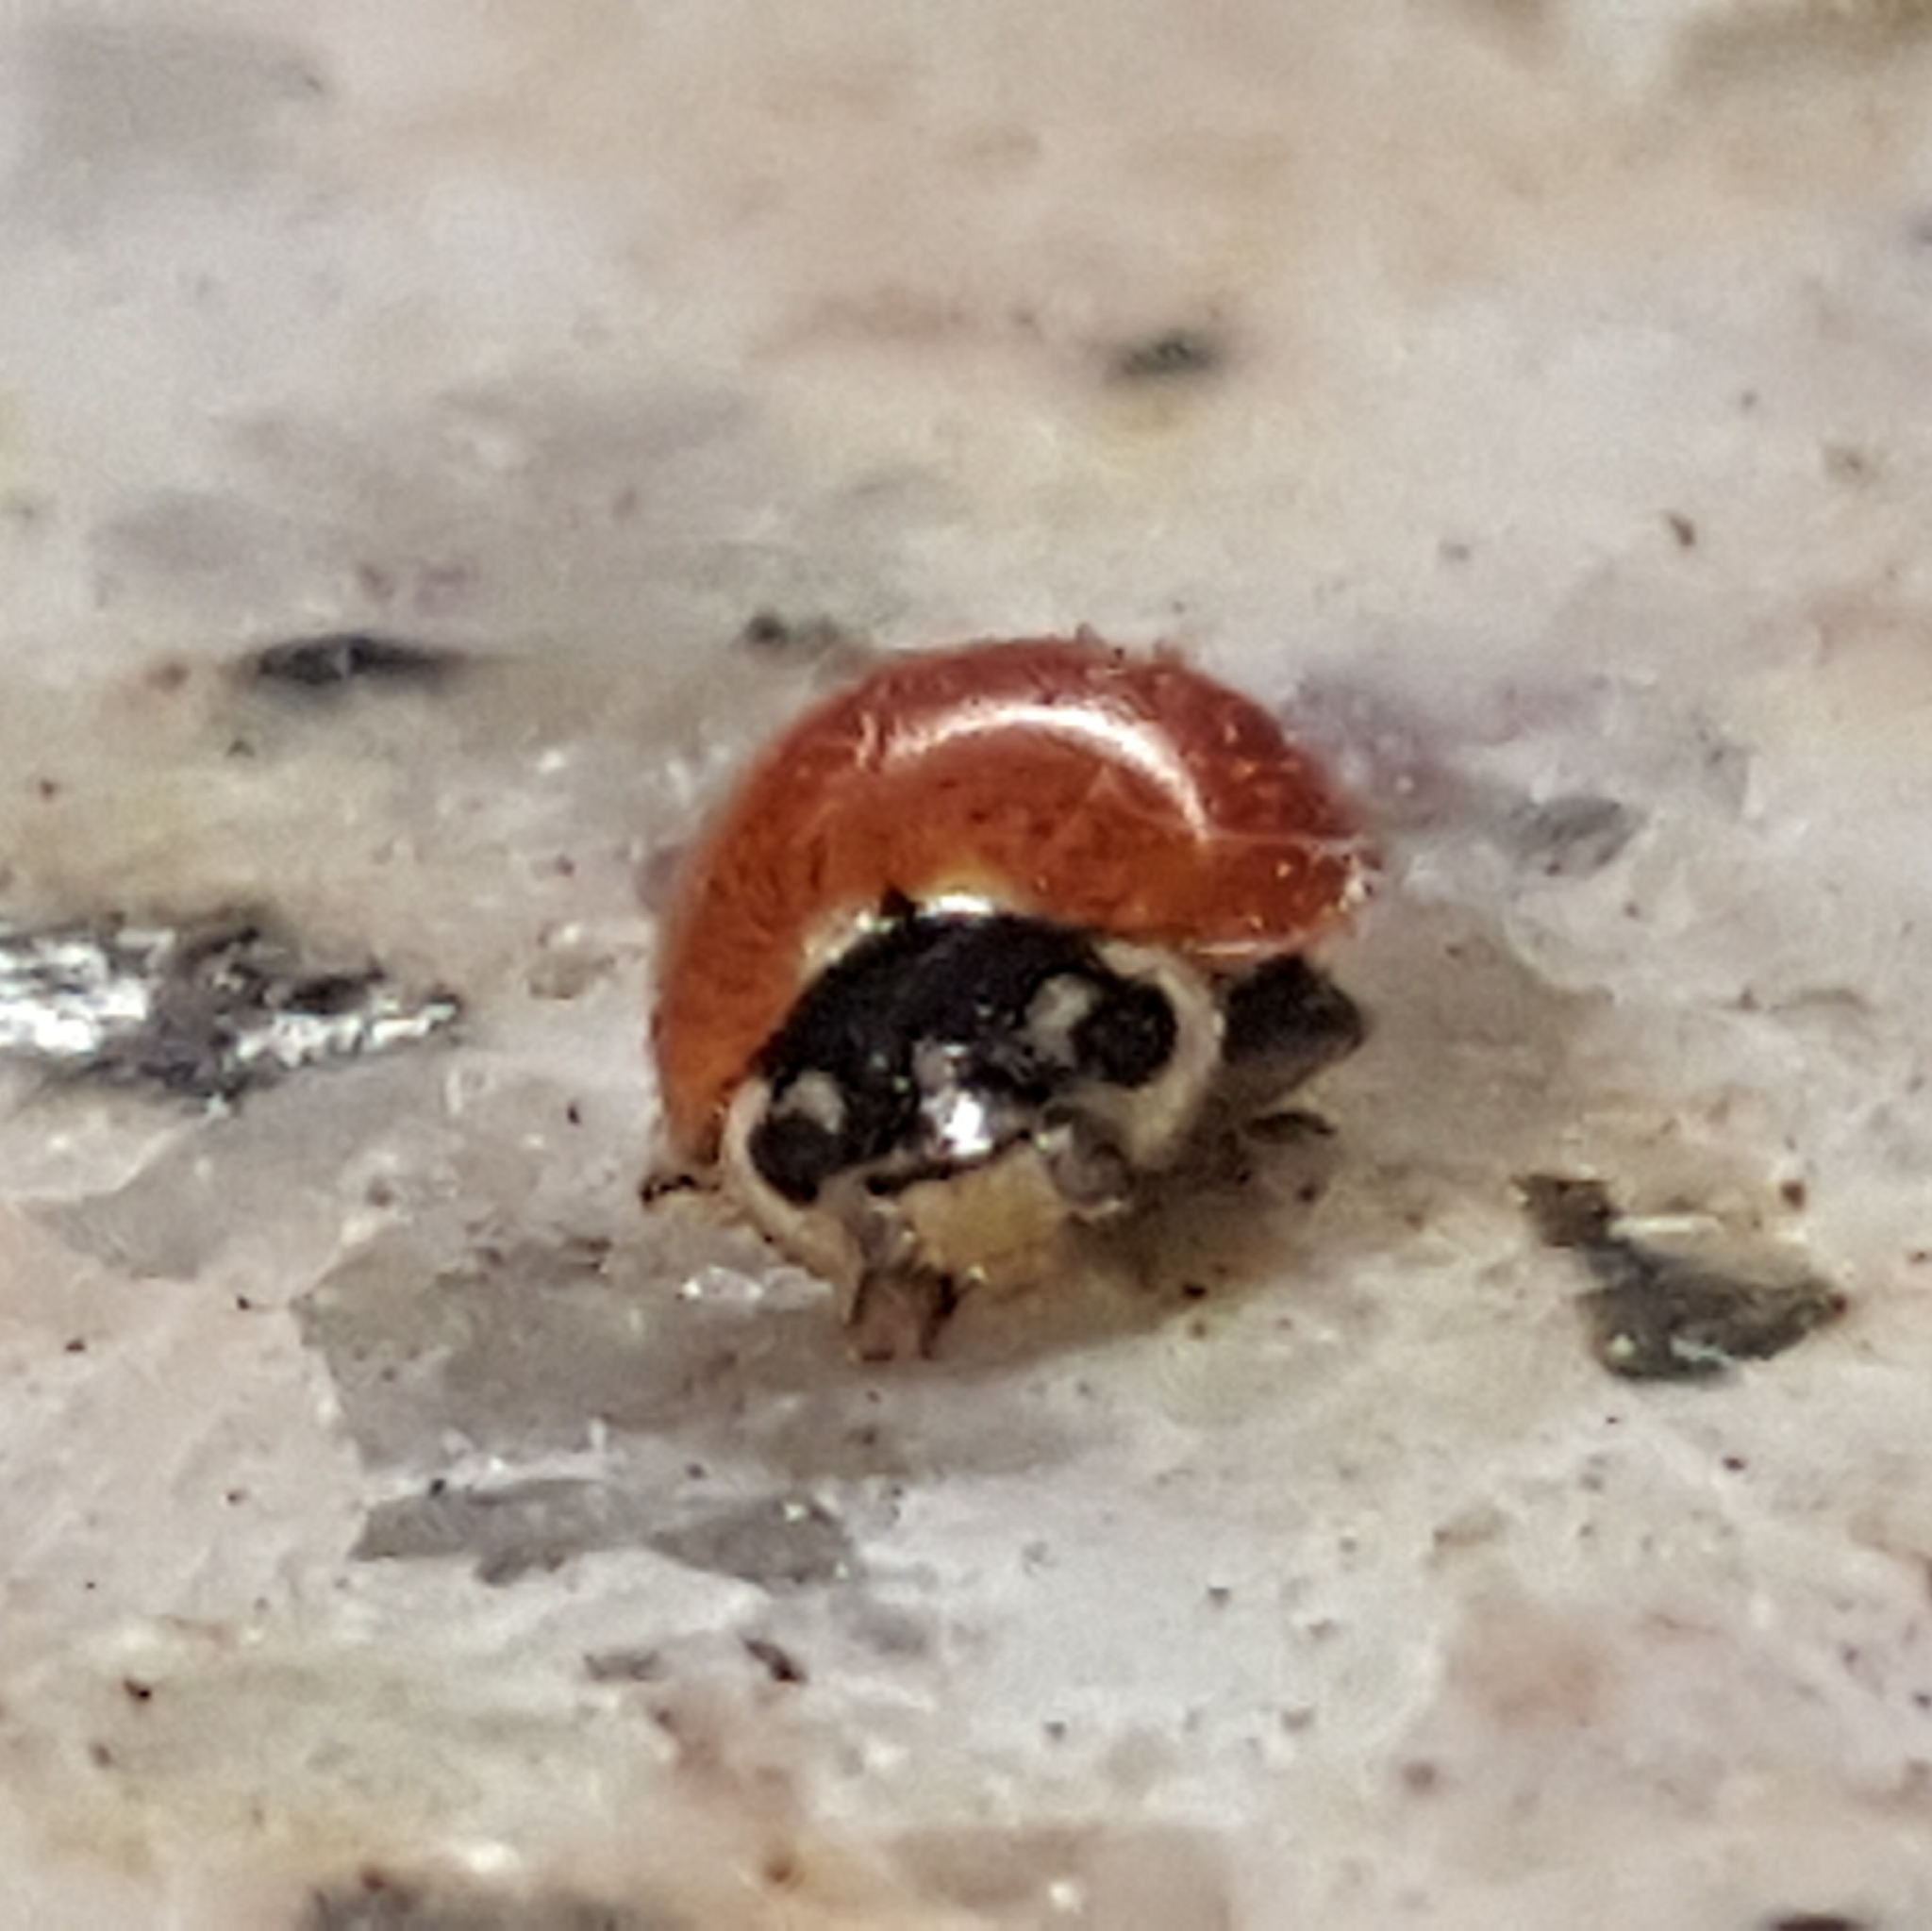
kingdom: Animalia
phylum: Arthropoda
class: Insecta
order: Coleoptera
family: Coccinellidae
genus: Cycloneda
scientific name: Cycloneda polita
